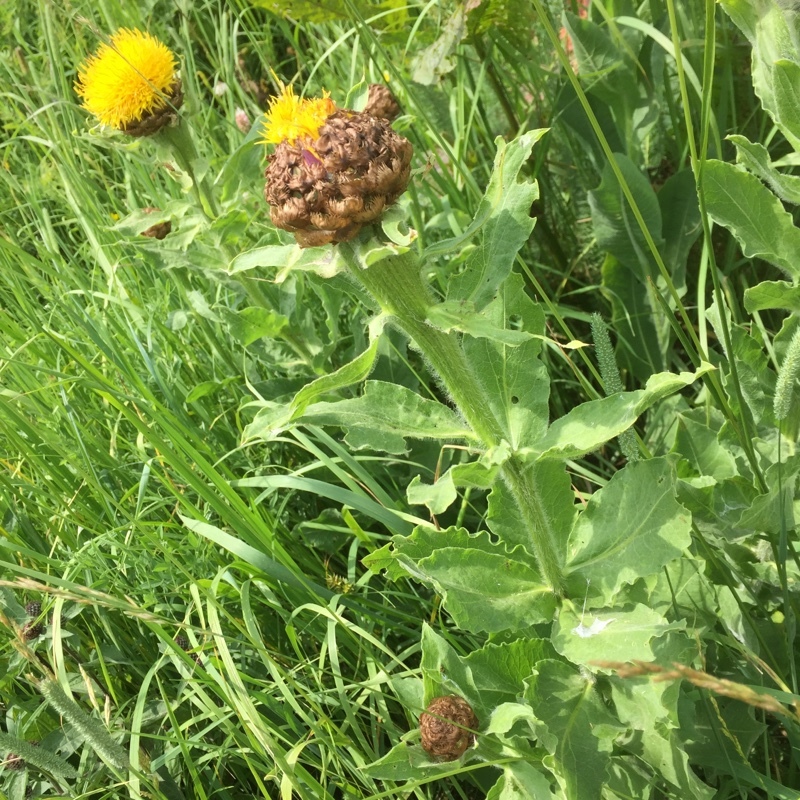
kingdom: Plantae
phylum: Tracheophyta
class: Magnoliopsida
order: Asterales
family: Asteraceae
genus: Centaurea
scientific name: Centaurea macrocephala
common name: Big-head knapweed
